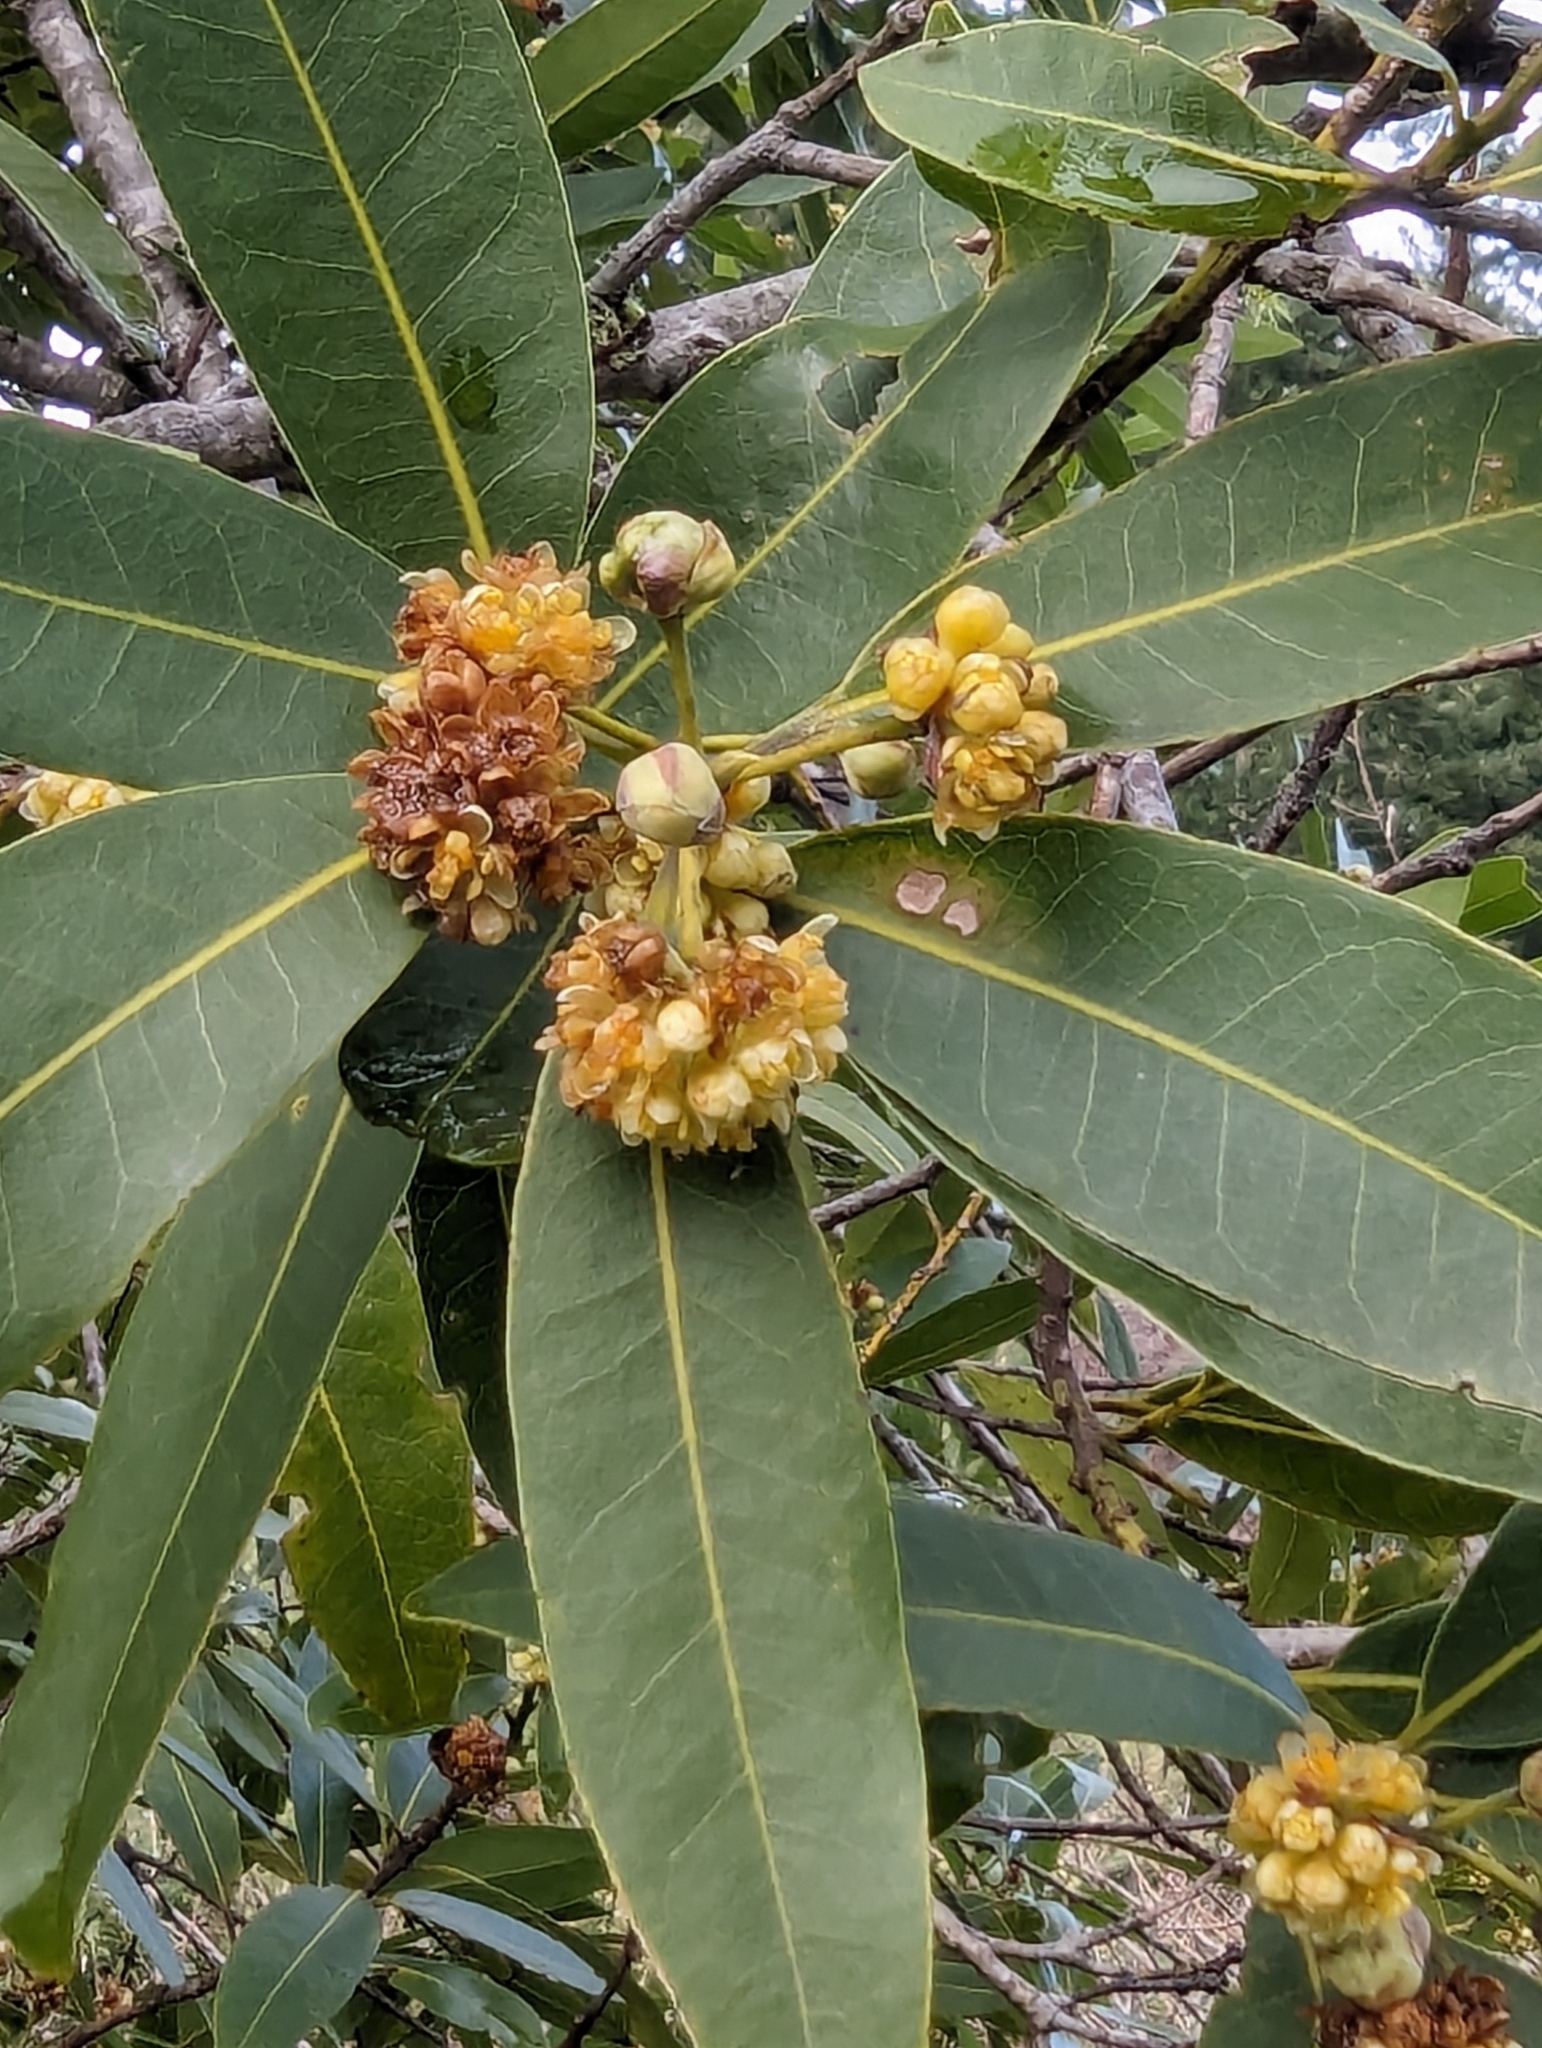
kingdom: Plantae
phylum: Tracheophyta
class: Magnoliopsida
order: Laurales
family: Lauraceae
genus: Umbellularia
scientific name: Umbellularia californica
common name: California bay
